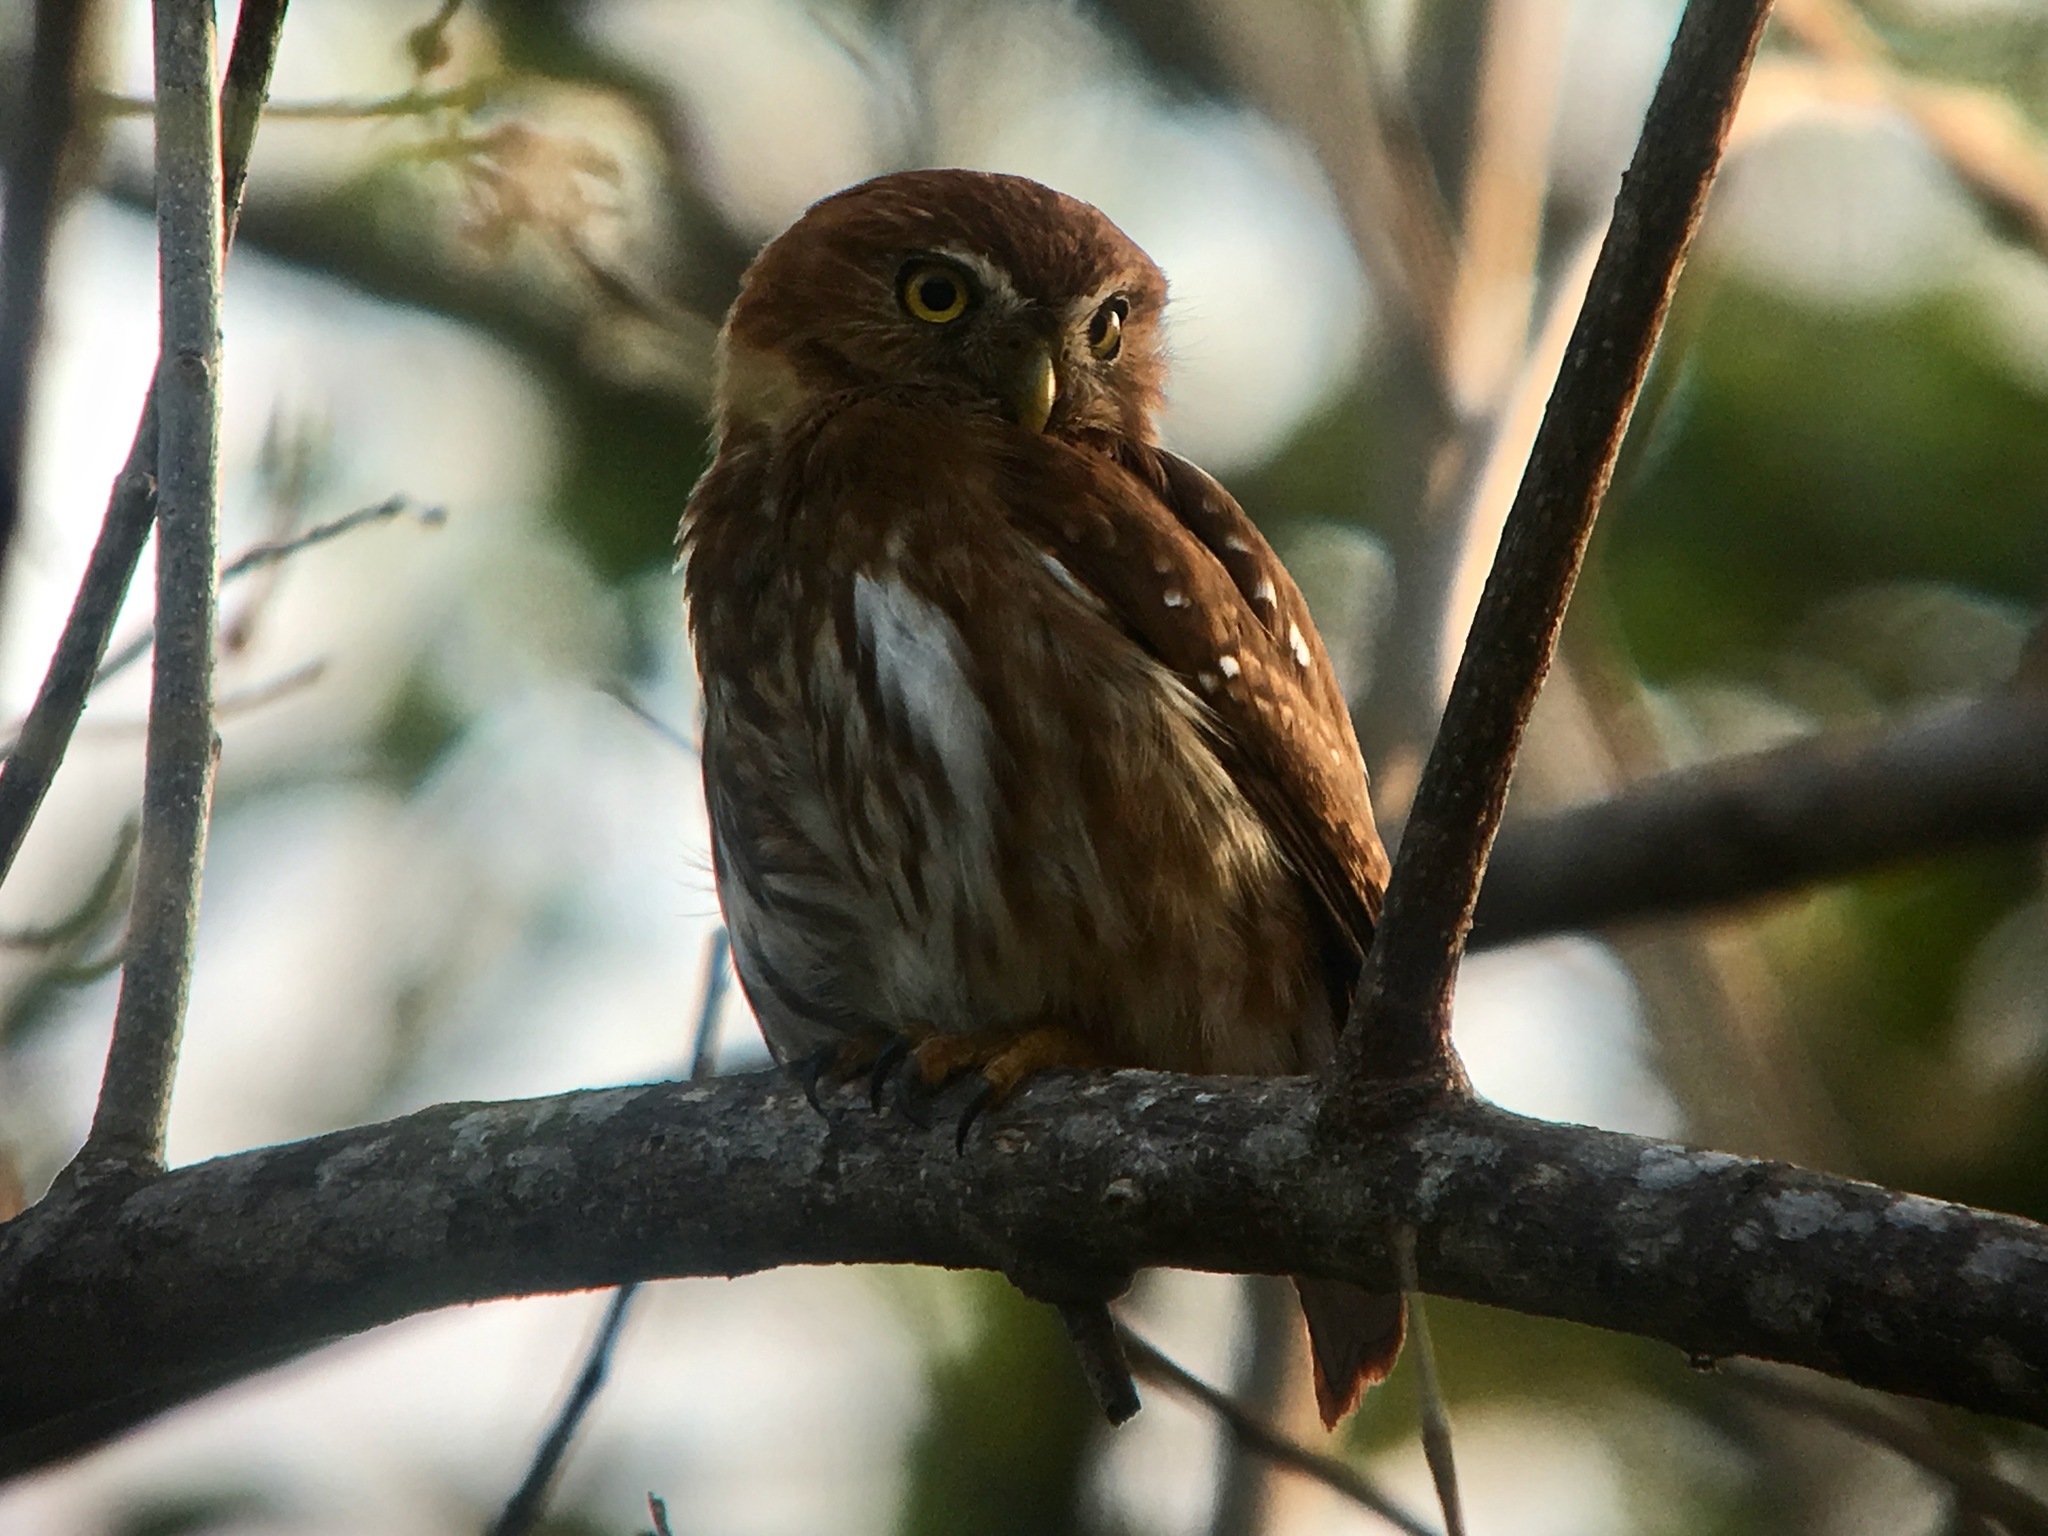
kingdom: Animalia
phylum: Chordata
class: Aves
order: Strigiformes
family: Strigidae
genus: Glaucidium
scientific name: Glaucidium brasilianum
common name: Ferruginous pygmy-owl
